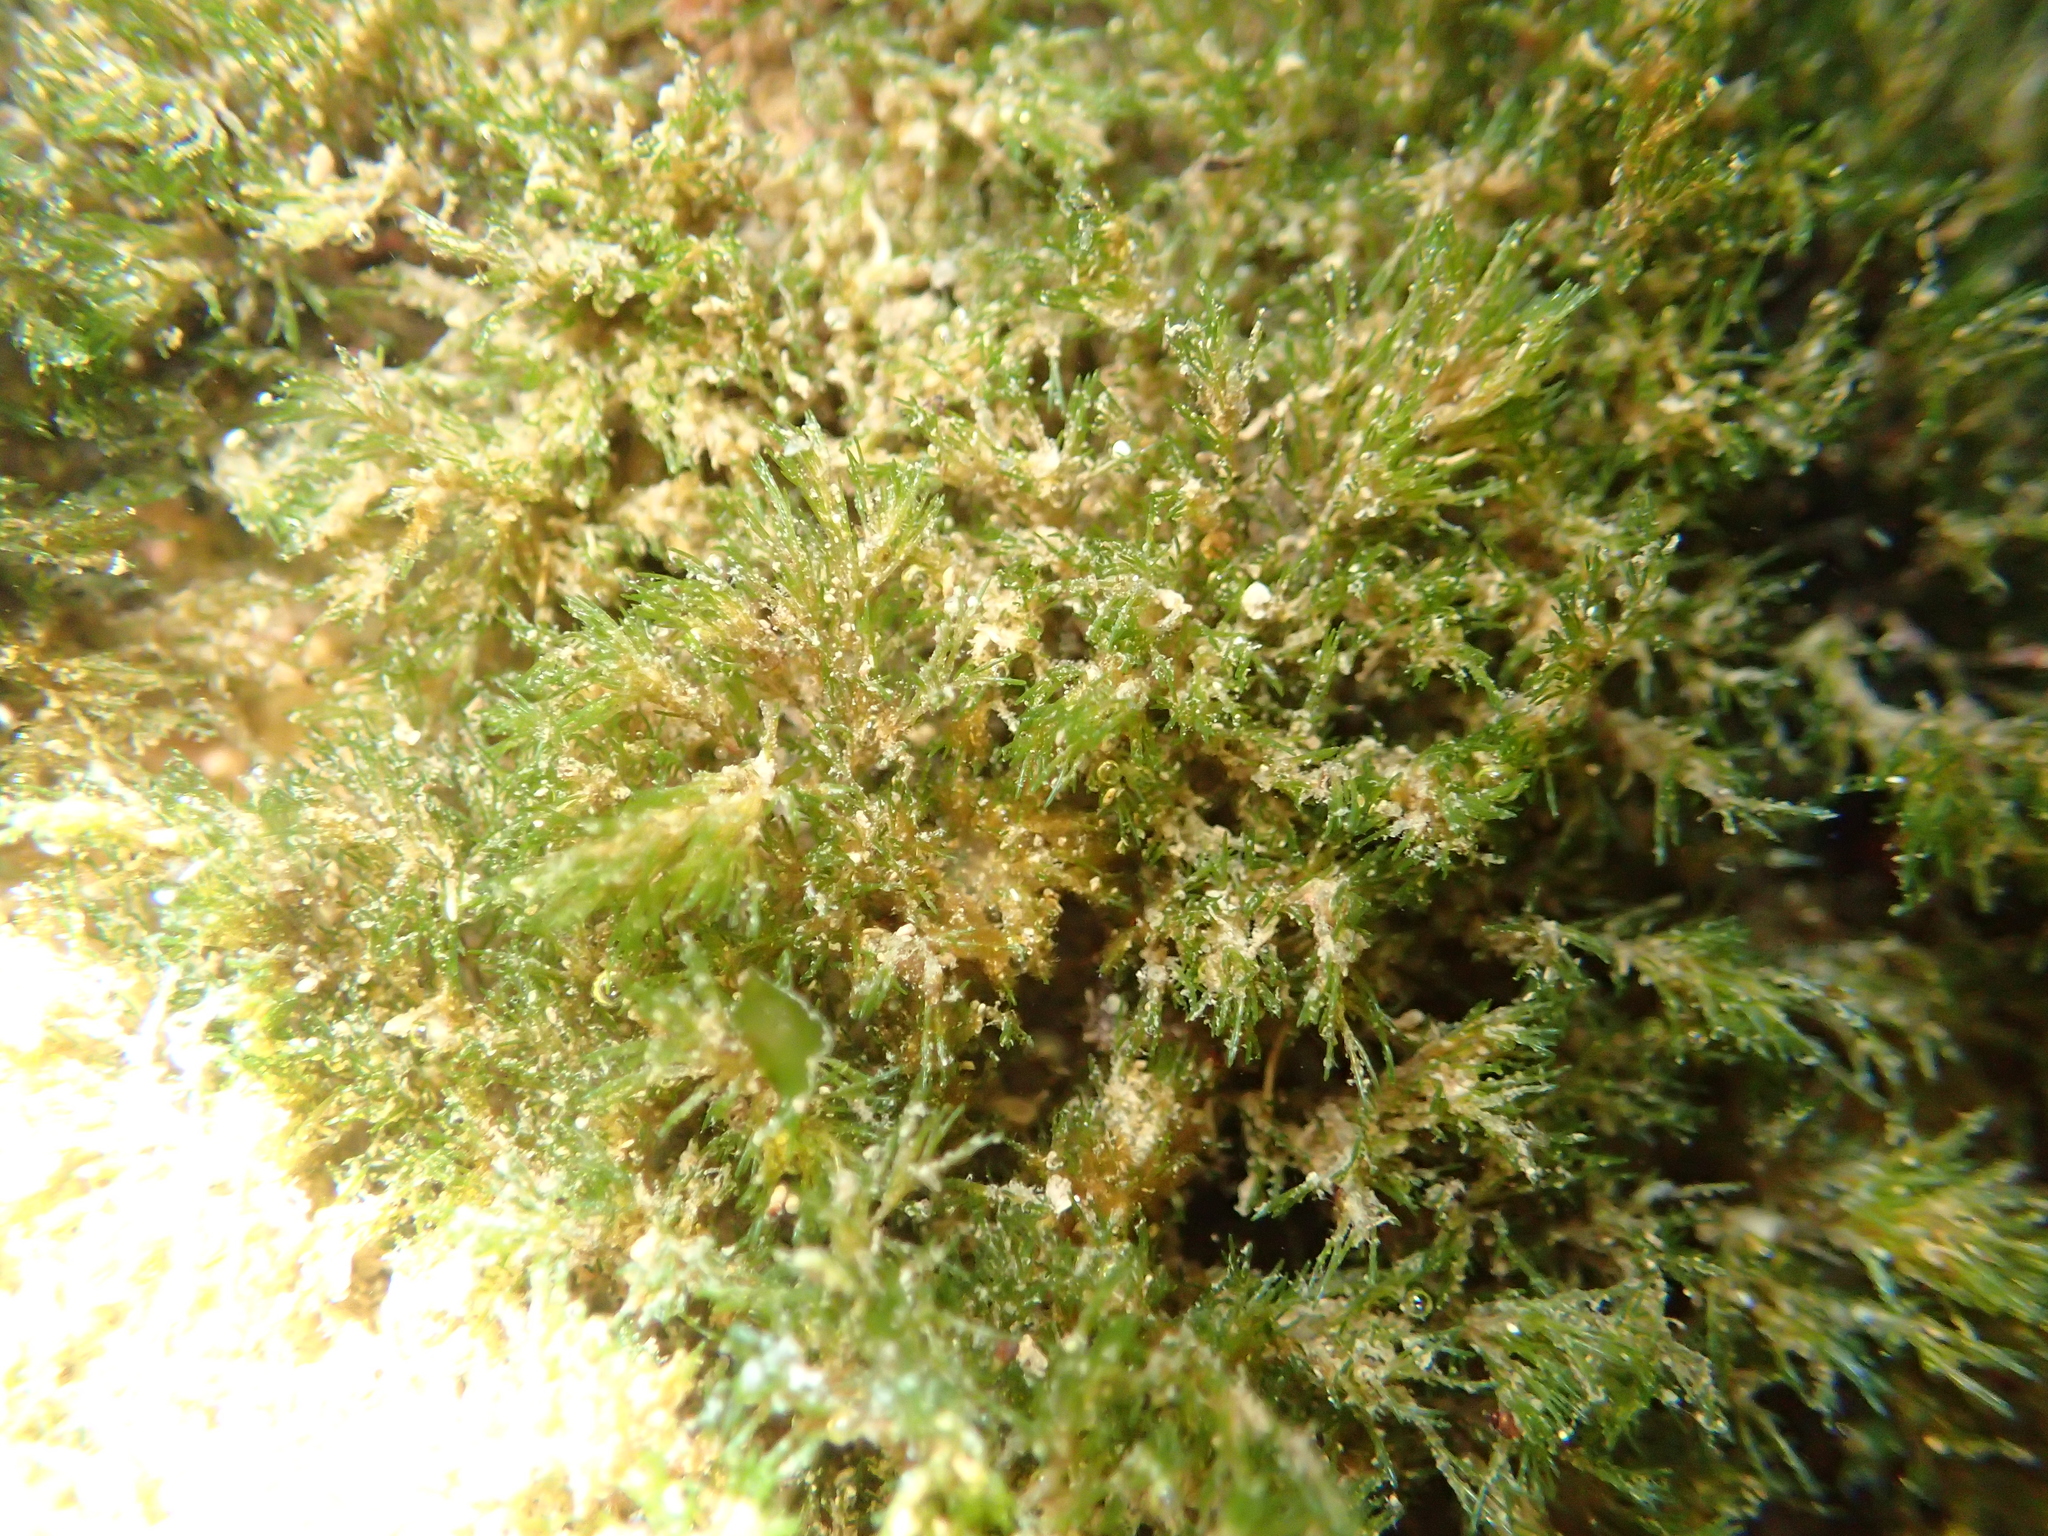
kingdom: Plantae
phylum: Chlorophyta
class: Ulvophyceae
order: Cladophorales
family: Cladophoraceae
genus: Lychaete
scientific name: Lychaete herpestica
